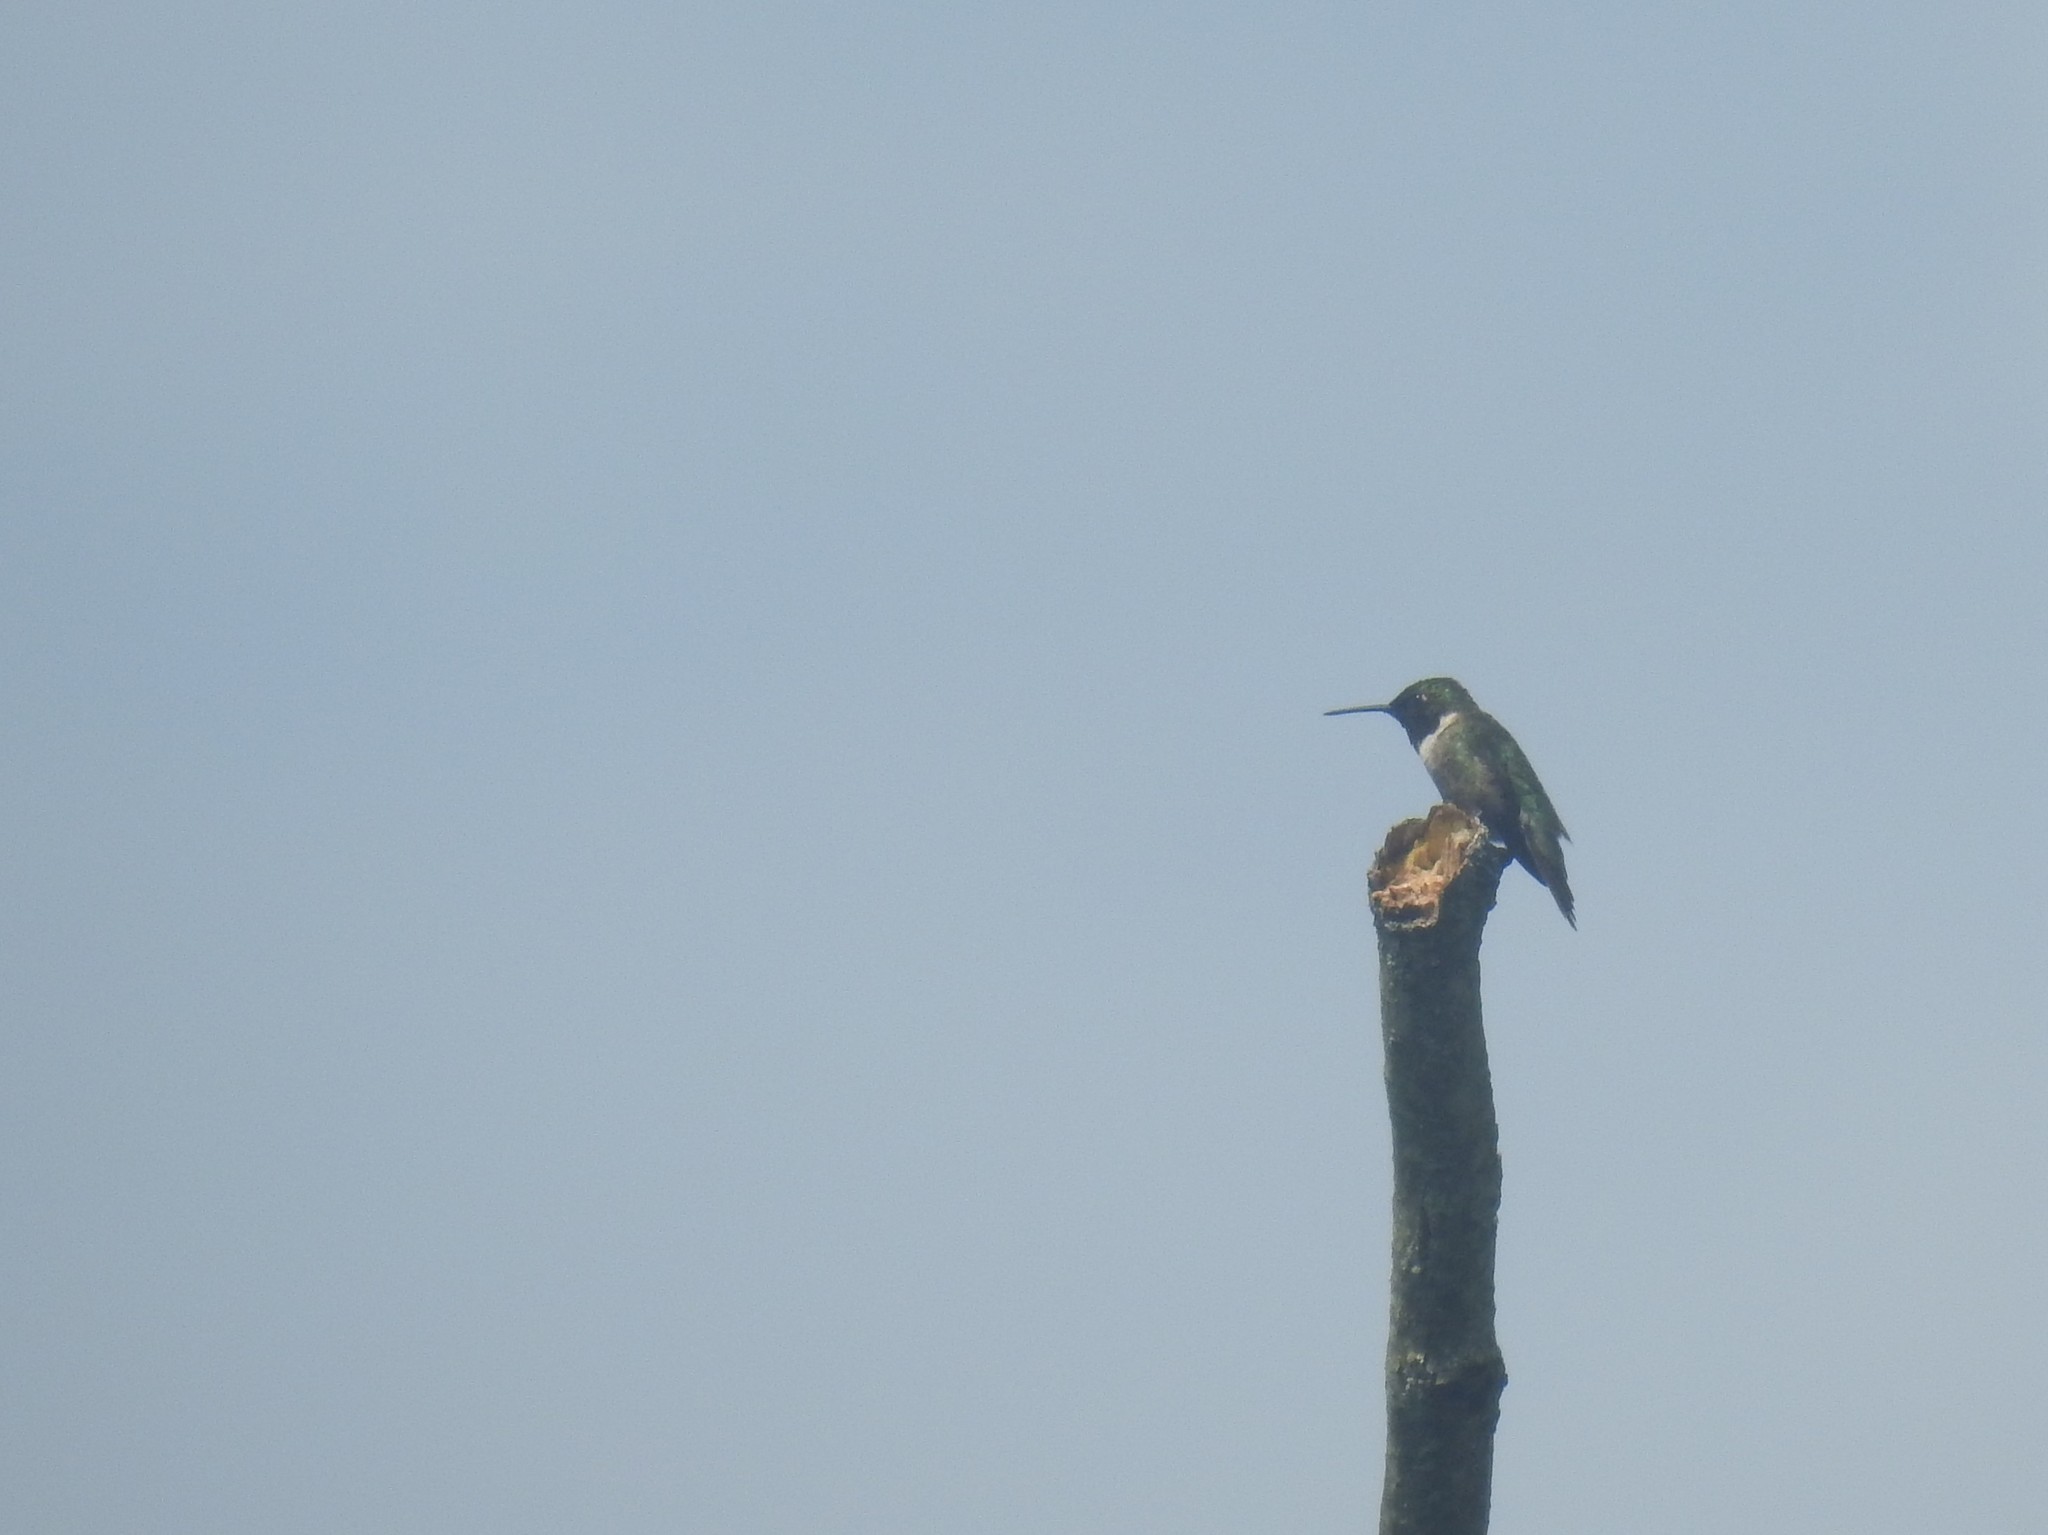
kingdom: Animalia
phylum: Chordata
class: Aves
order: Apodiformes
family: Trochilidae
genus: Archilochus
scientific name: Archilochus colubris
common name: Ruby-throated hummingbird
